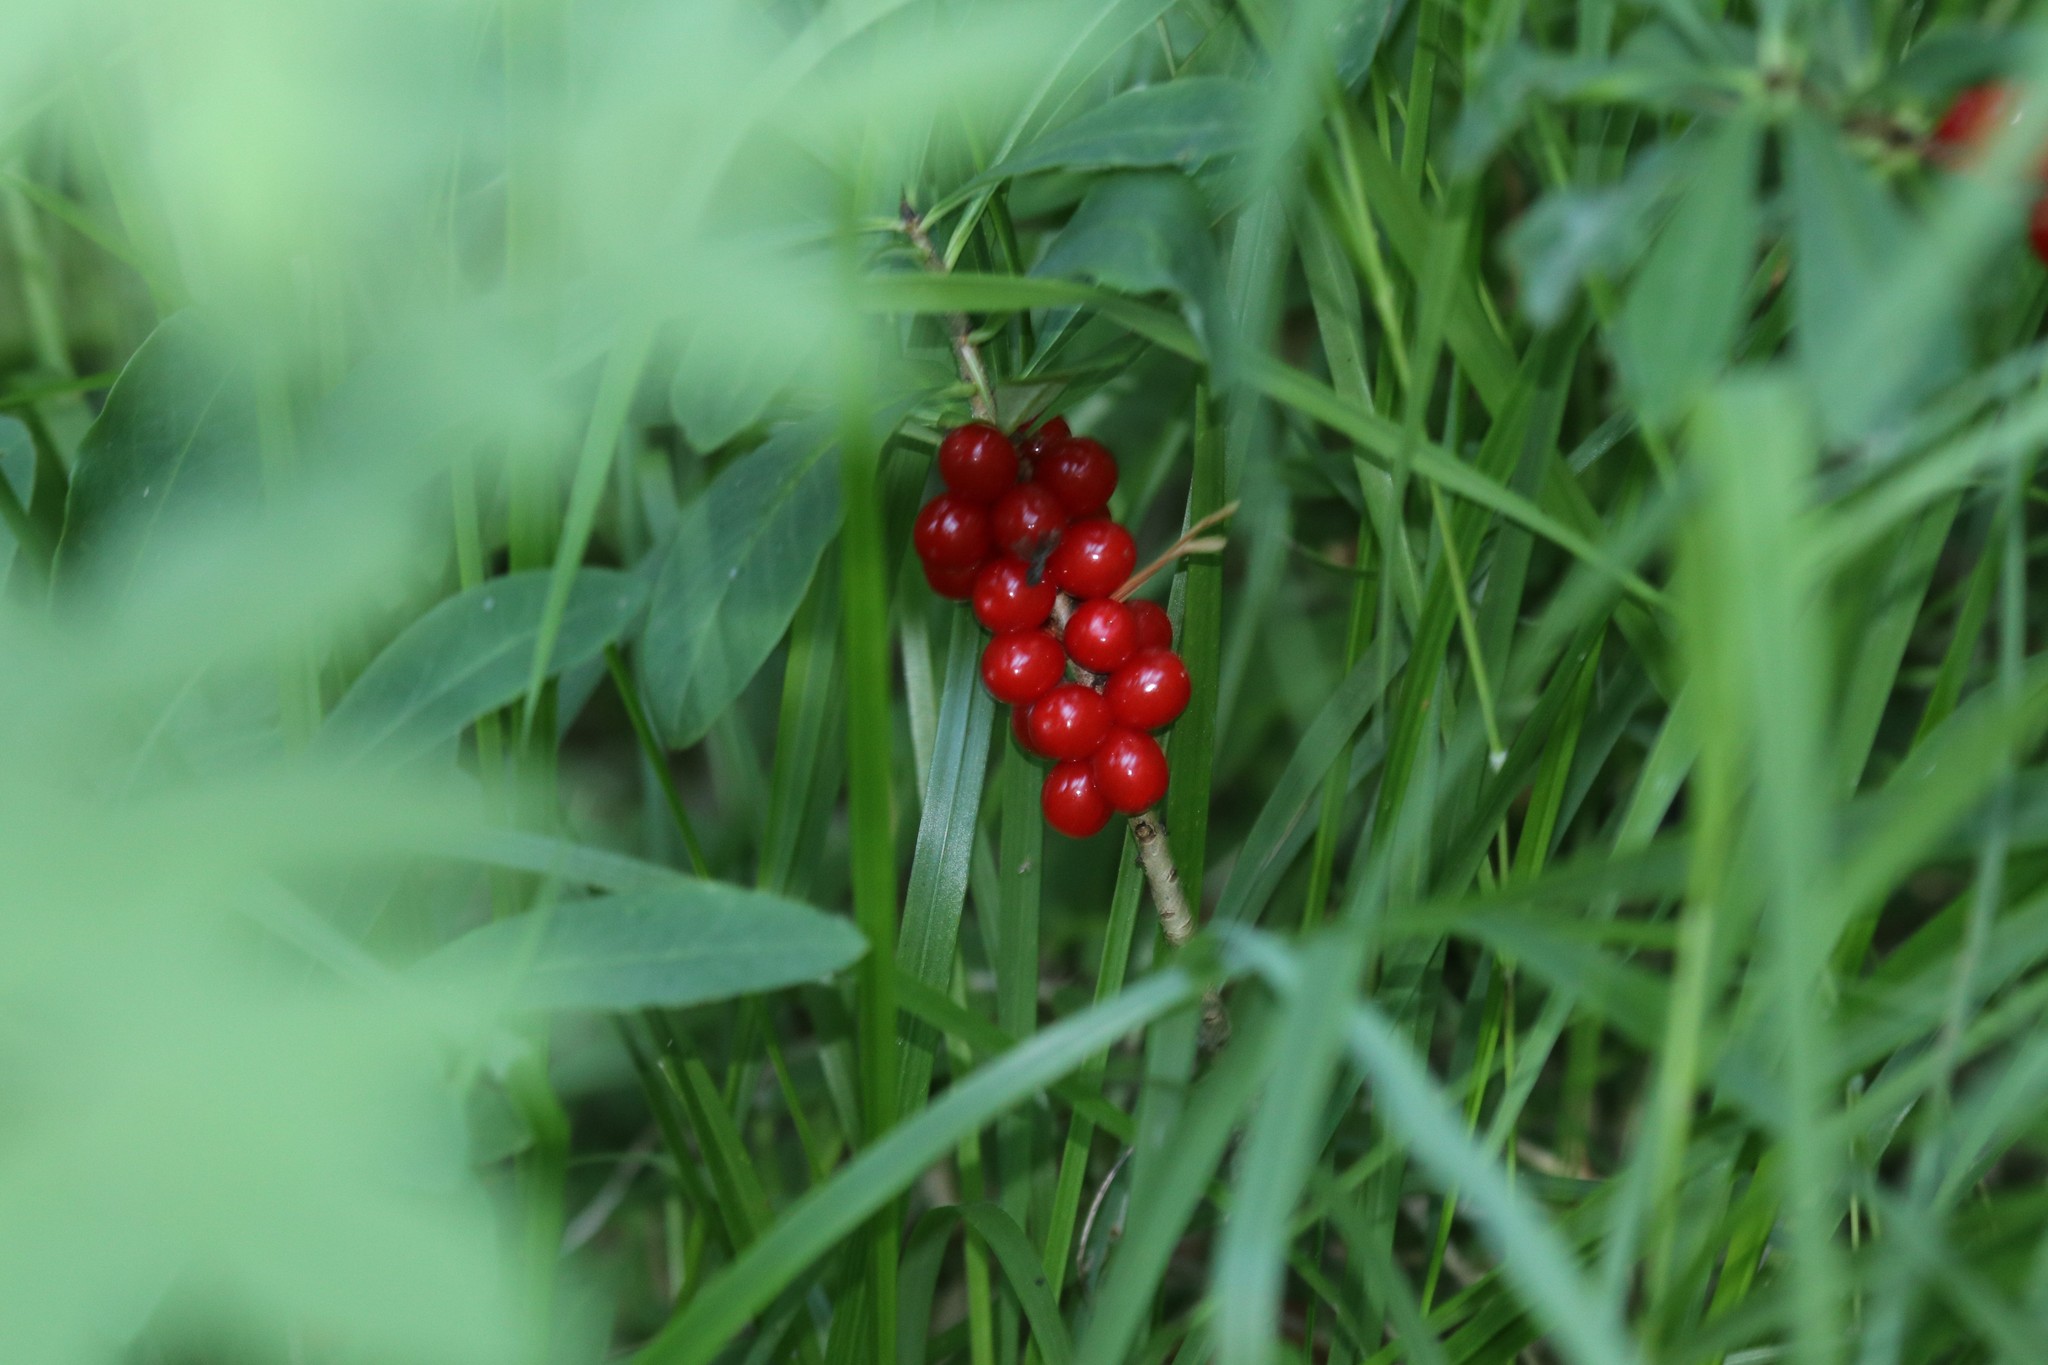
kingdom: Plantae
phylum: Tracheophyta
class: Magnoliopsida
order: Malvales
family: Thymelaeaceae
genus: Daphne
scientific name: Daphne mezereum
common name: Mezereon
